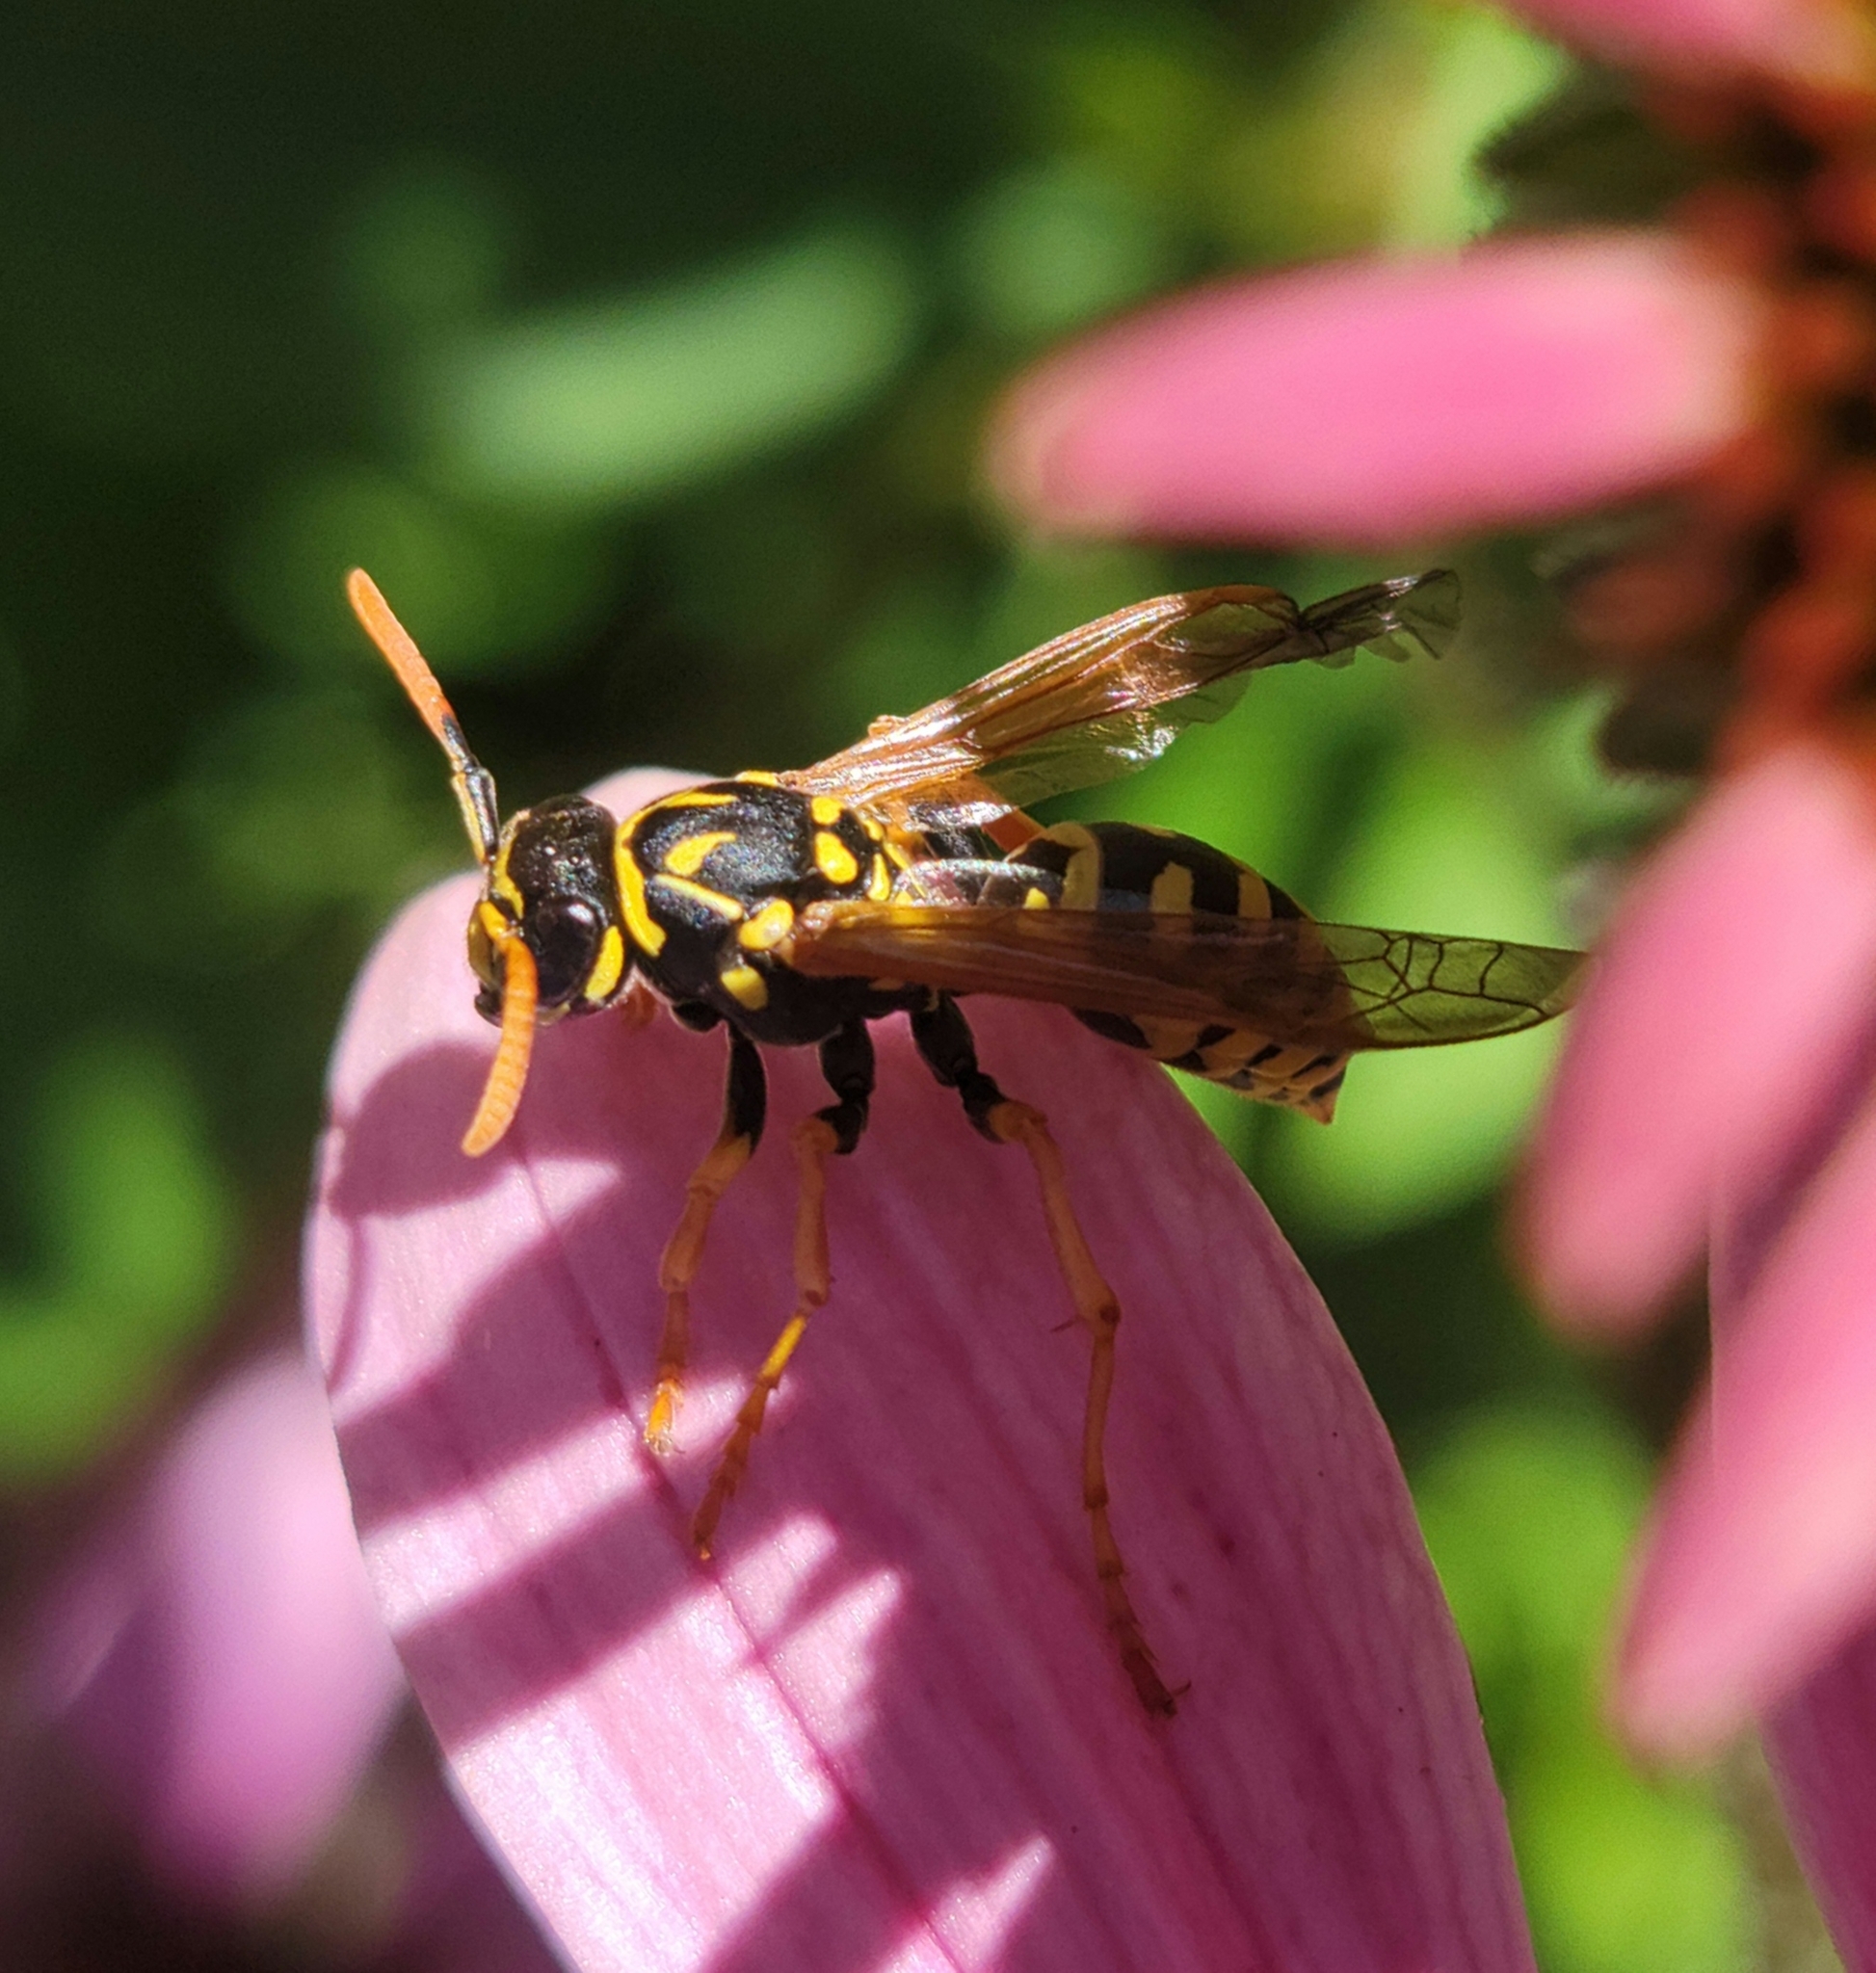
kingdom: Animalia
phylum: Arthropoda
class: Insecta
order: Hymenoptera
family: Eumenidae
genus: Polistes
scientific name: Polistes dominula
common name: Paper wasp
